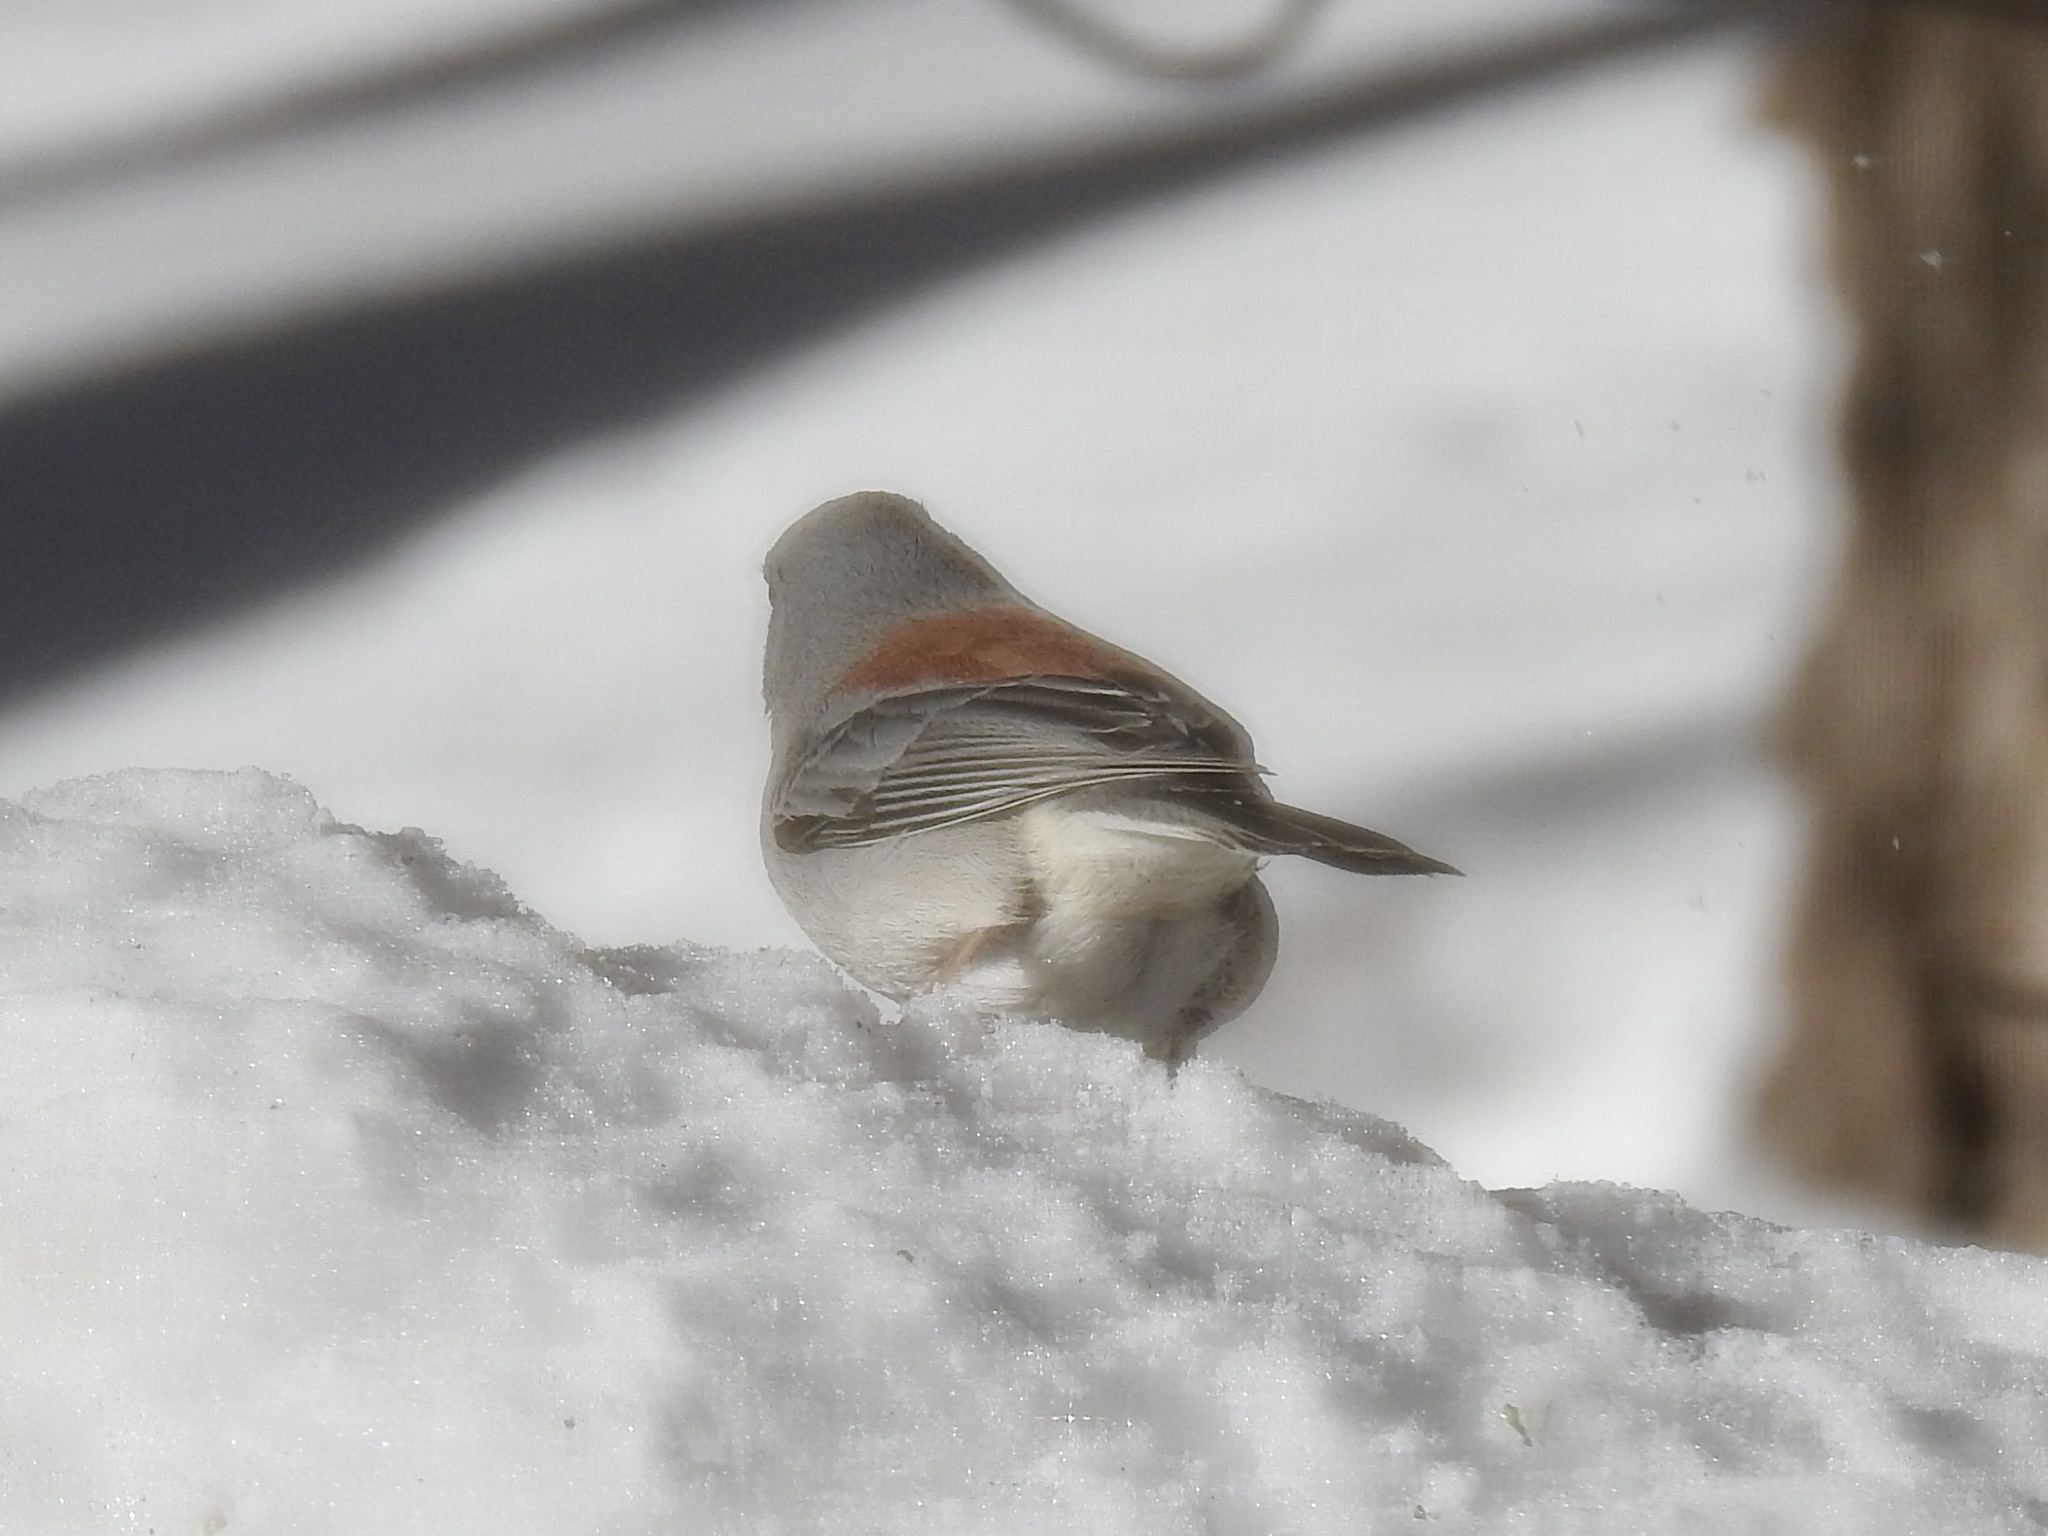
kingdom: Animalia
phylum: Chordata
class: Aves
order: Passeriformes
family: Passerellidae
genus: Junco
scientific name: Junco hyemalis
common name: Dark-eyed junco
